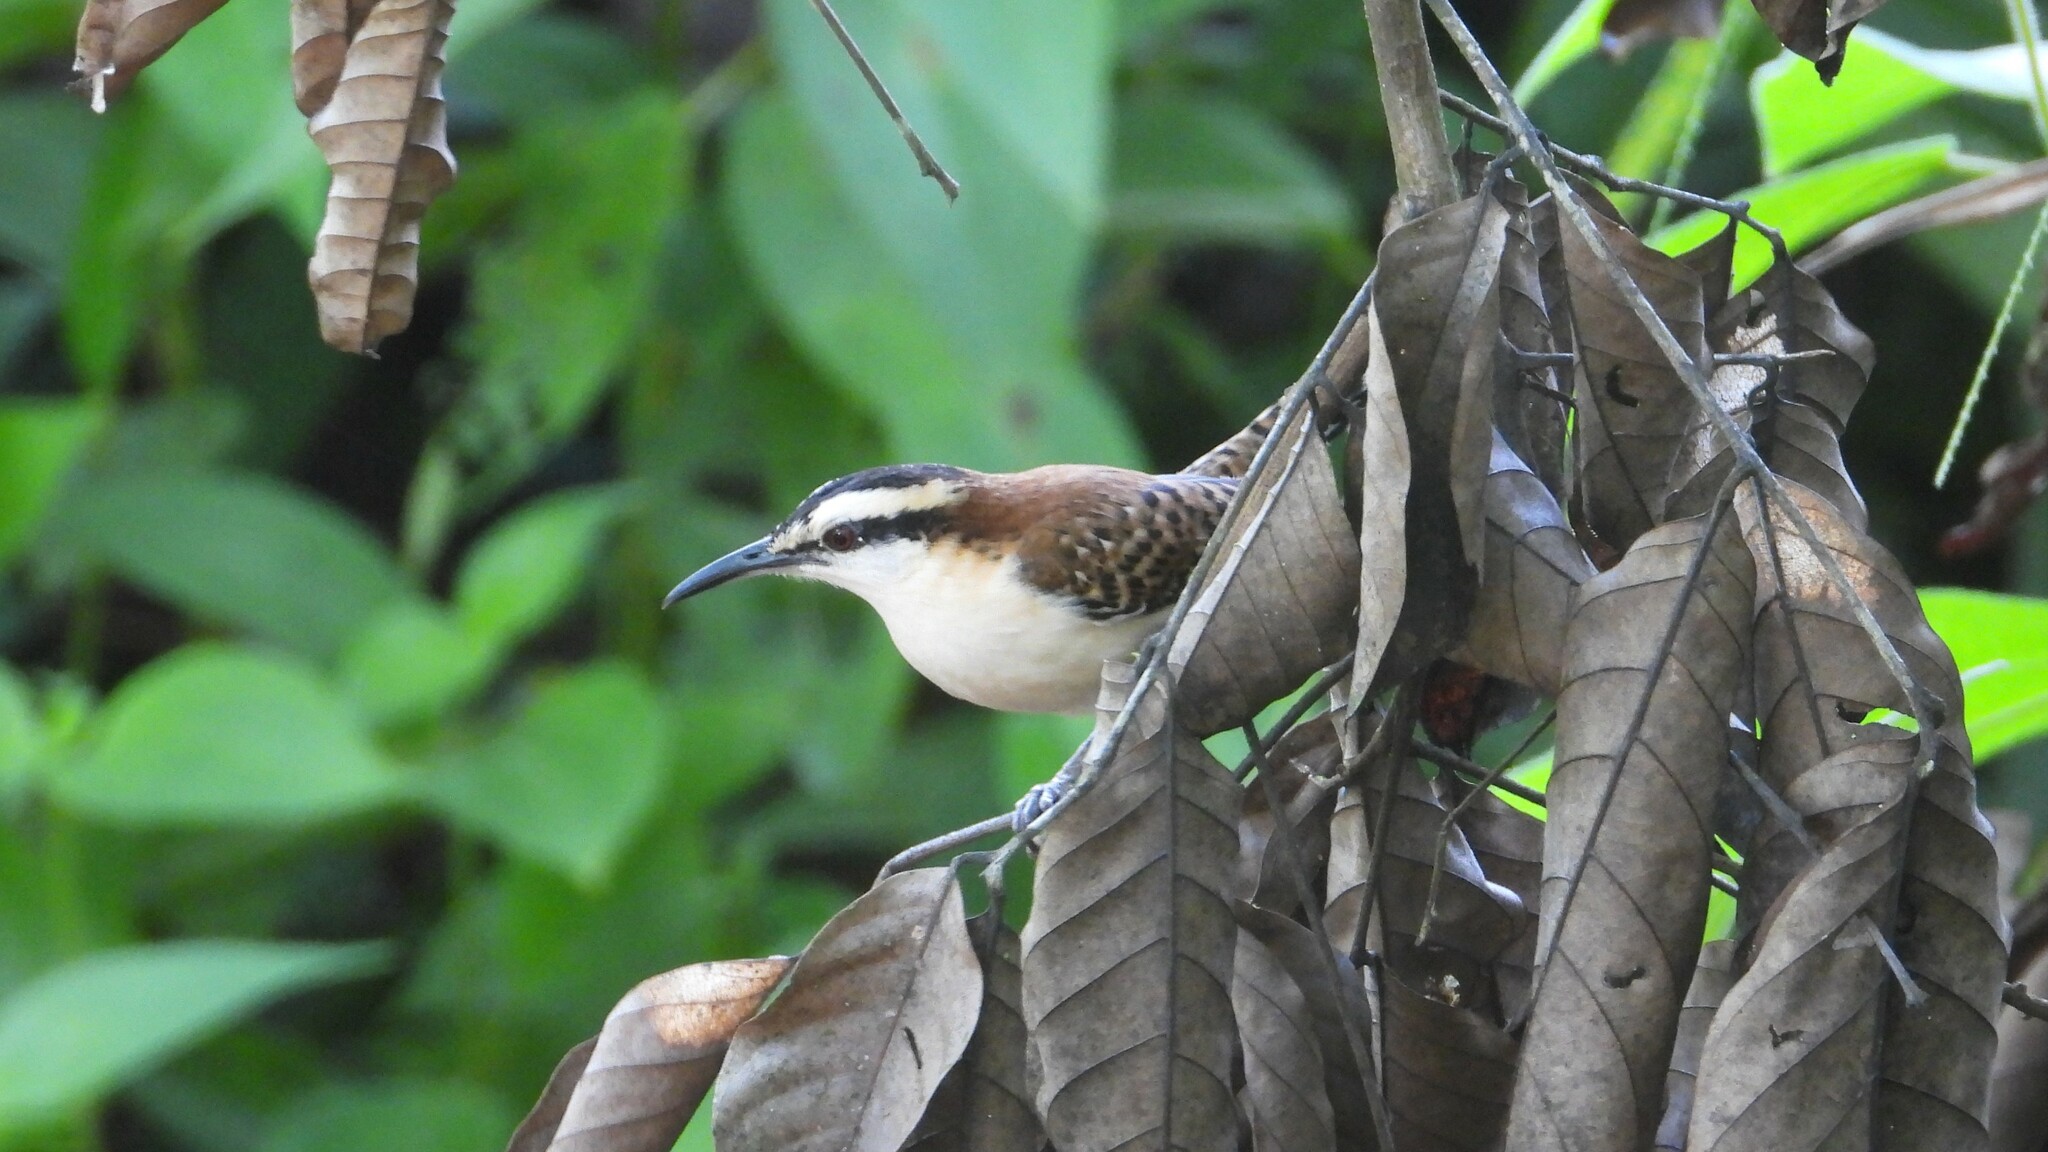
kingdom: Animalia
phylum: Chordata
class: Aves
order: Passeriformes
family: Troglodytidae
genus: Campylorhynchus
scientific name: Campylorhynchus rufinucha
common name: Rufous-naped wren
